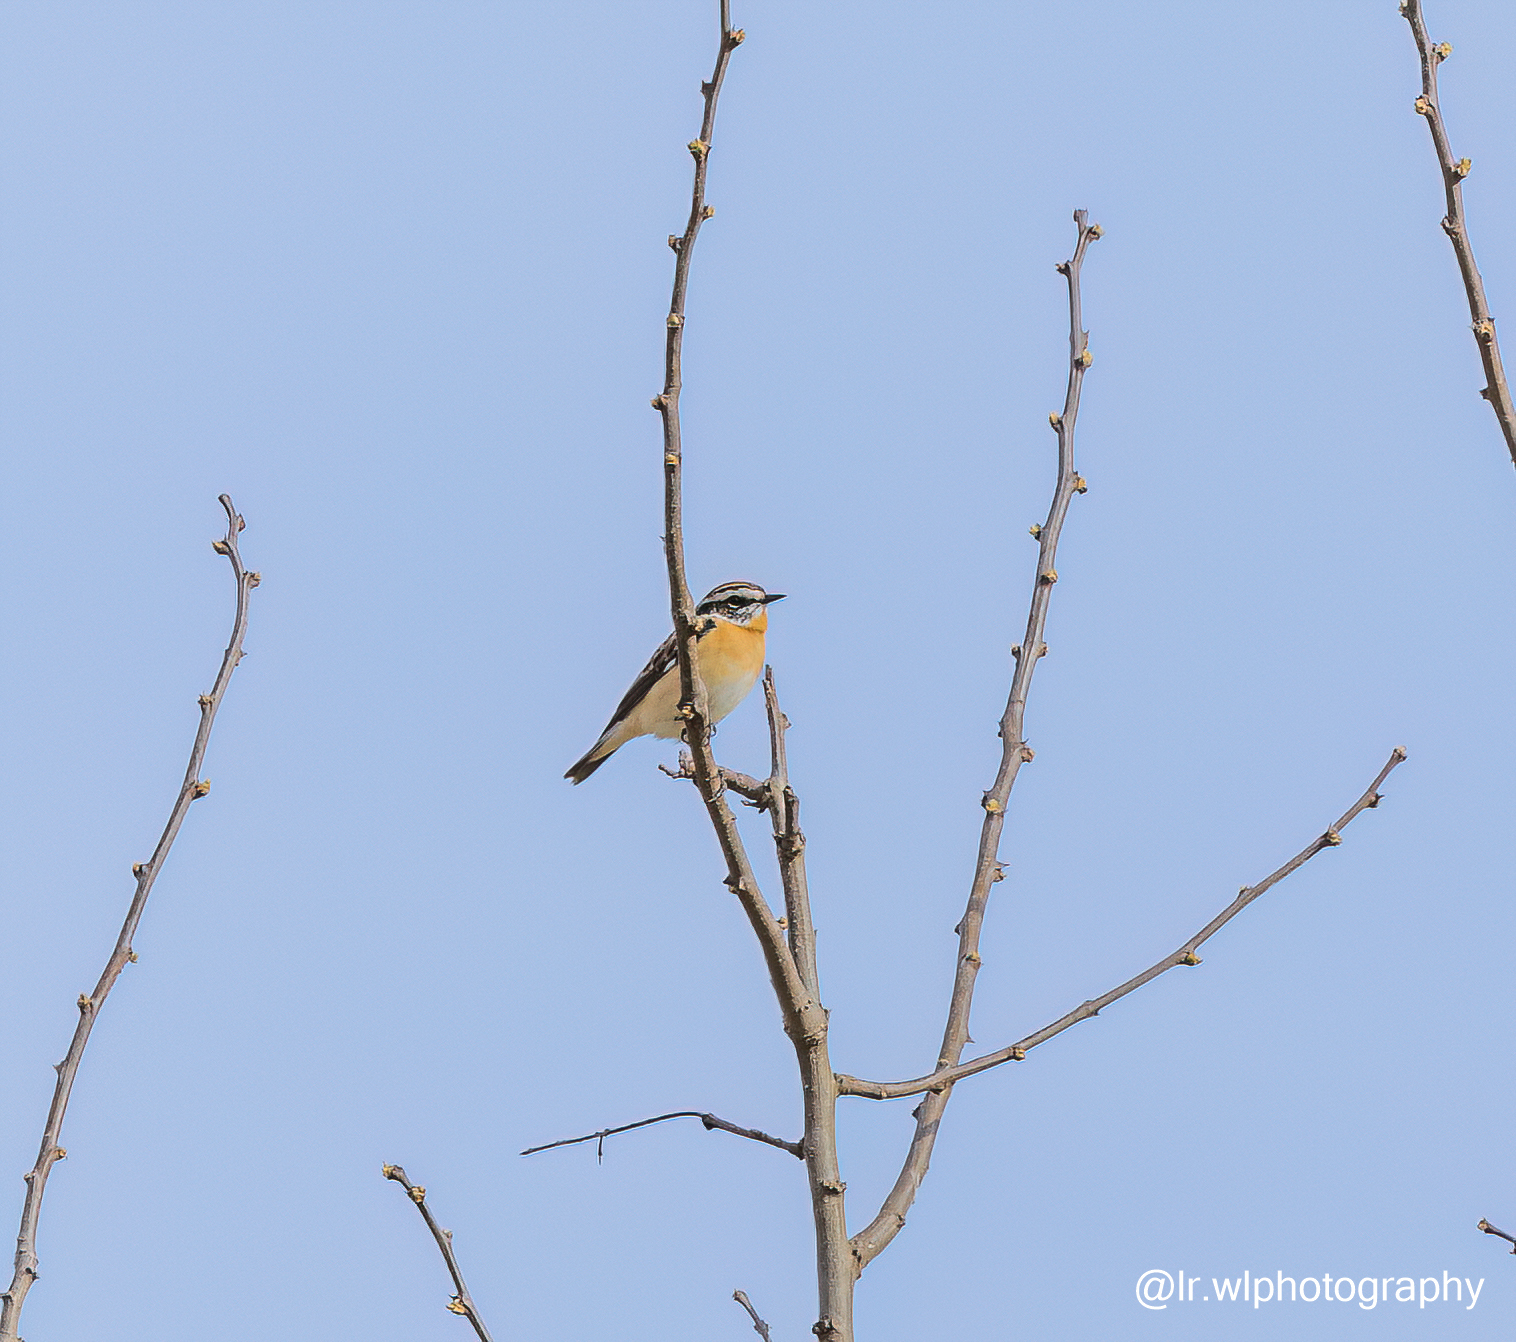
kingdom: Animalia
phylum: Chordata
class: Aves
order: Passeriformes
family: Muscicapidae
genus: Saxicola
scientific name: Saxicola rubetra
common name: Whinchat
